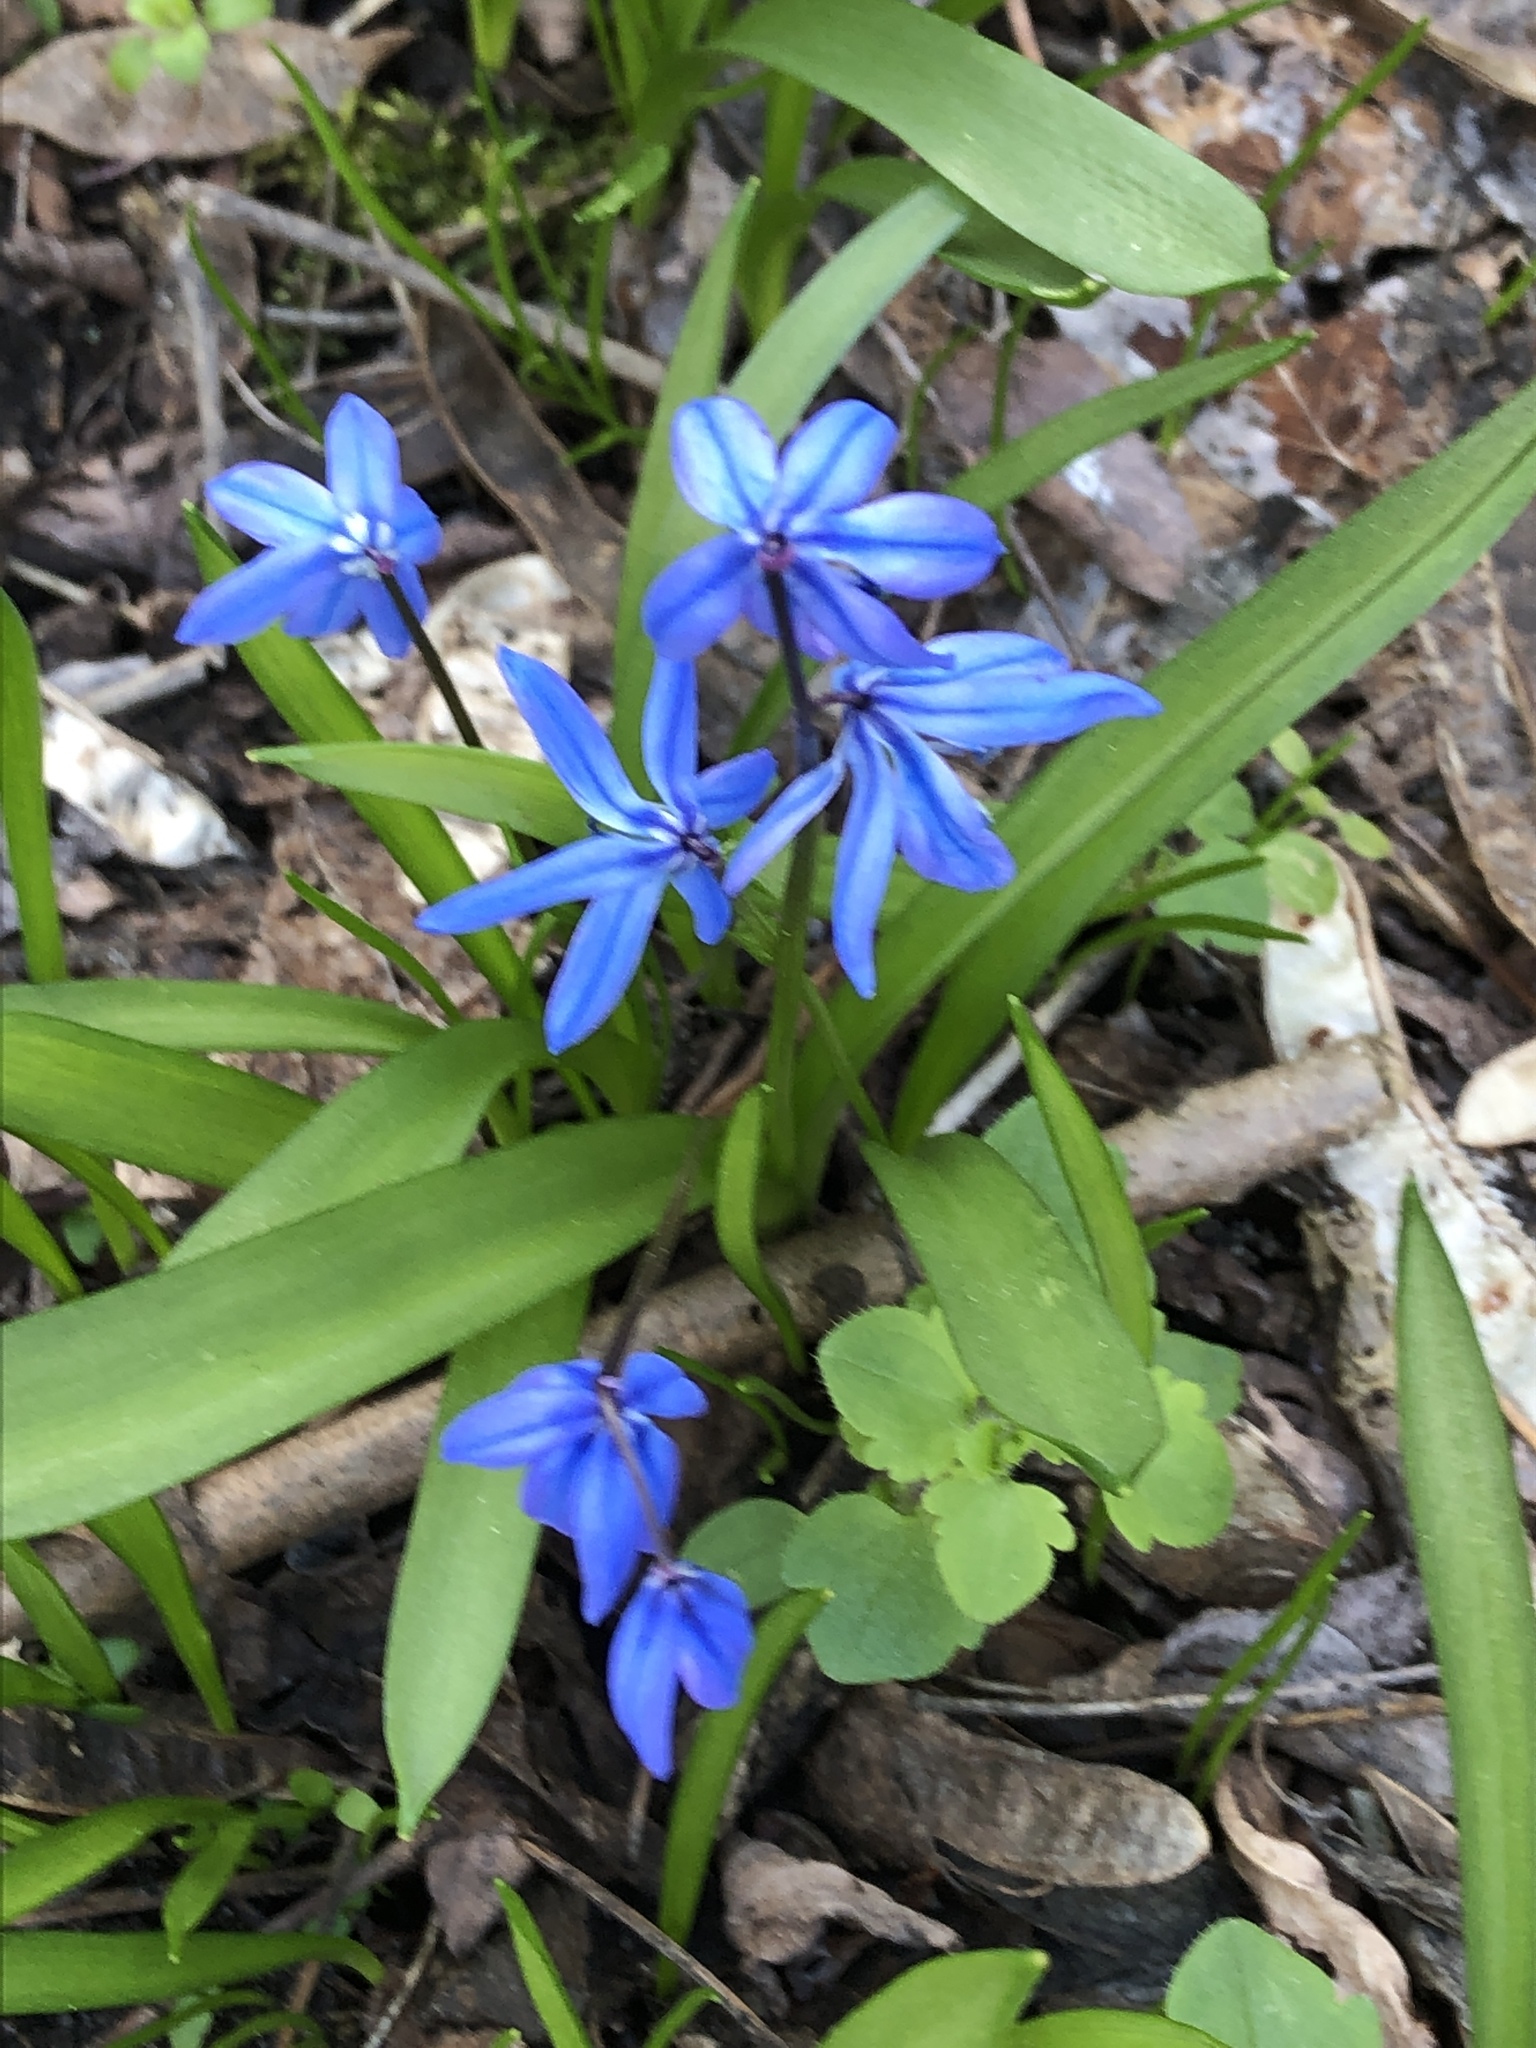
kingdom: Plantae
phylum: Tracheophyta
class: Liliopsida
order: Asparagales
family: Asparagaceae
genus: Scilla
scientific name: Scilla siberica
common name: Siberian squill
